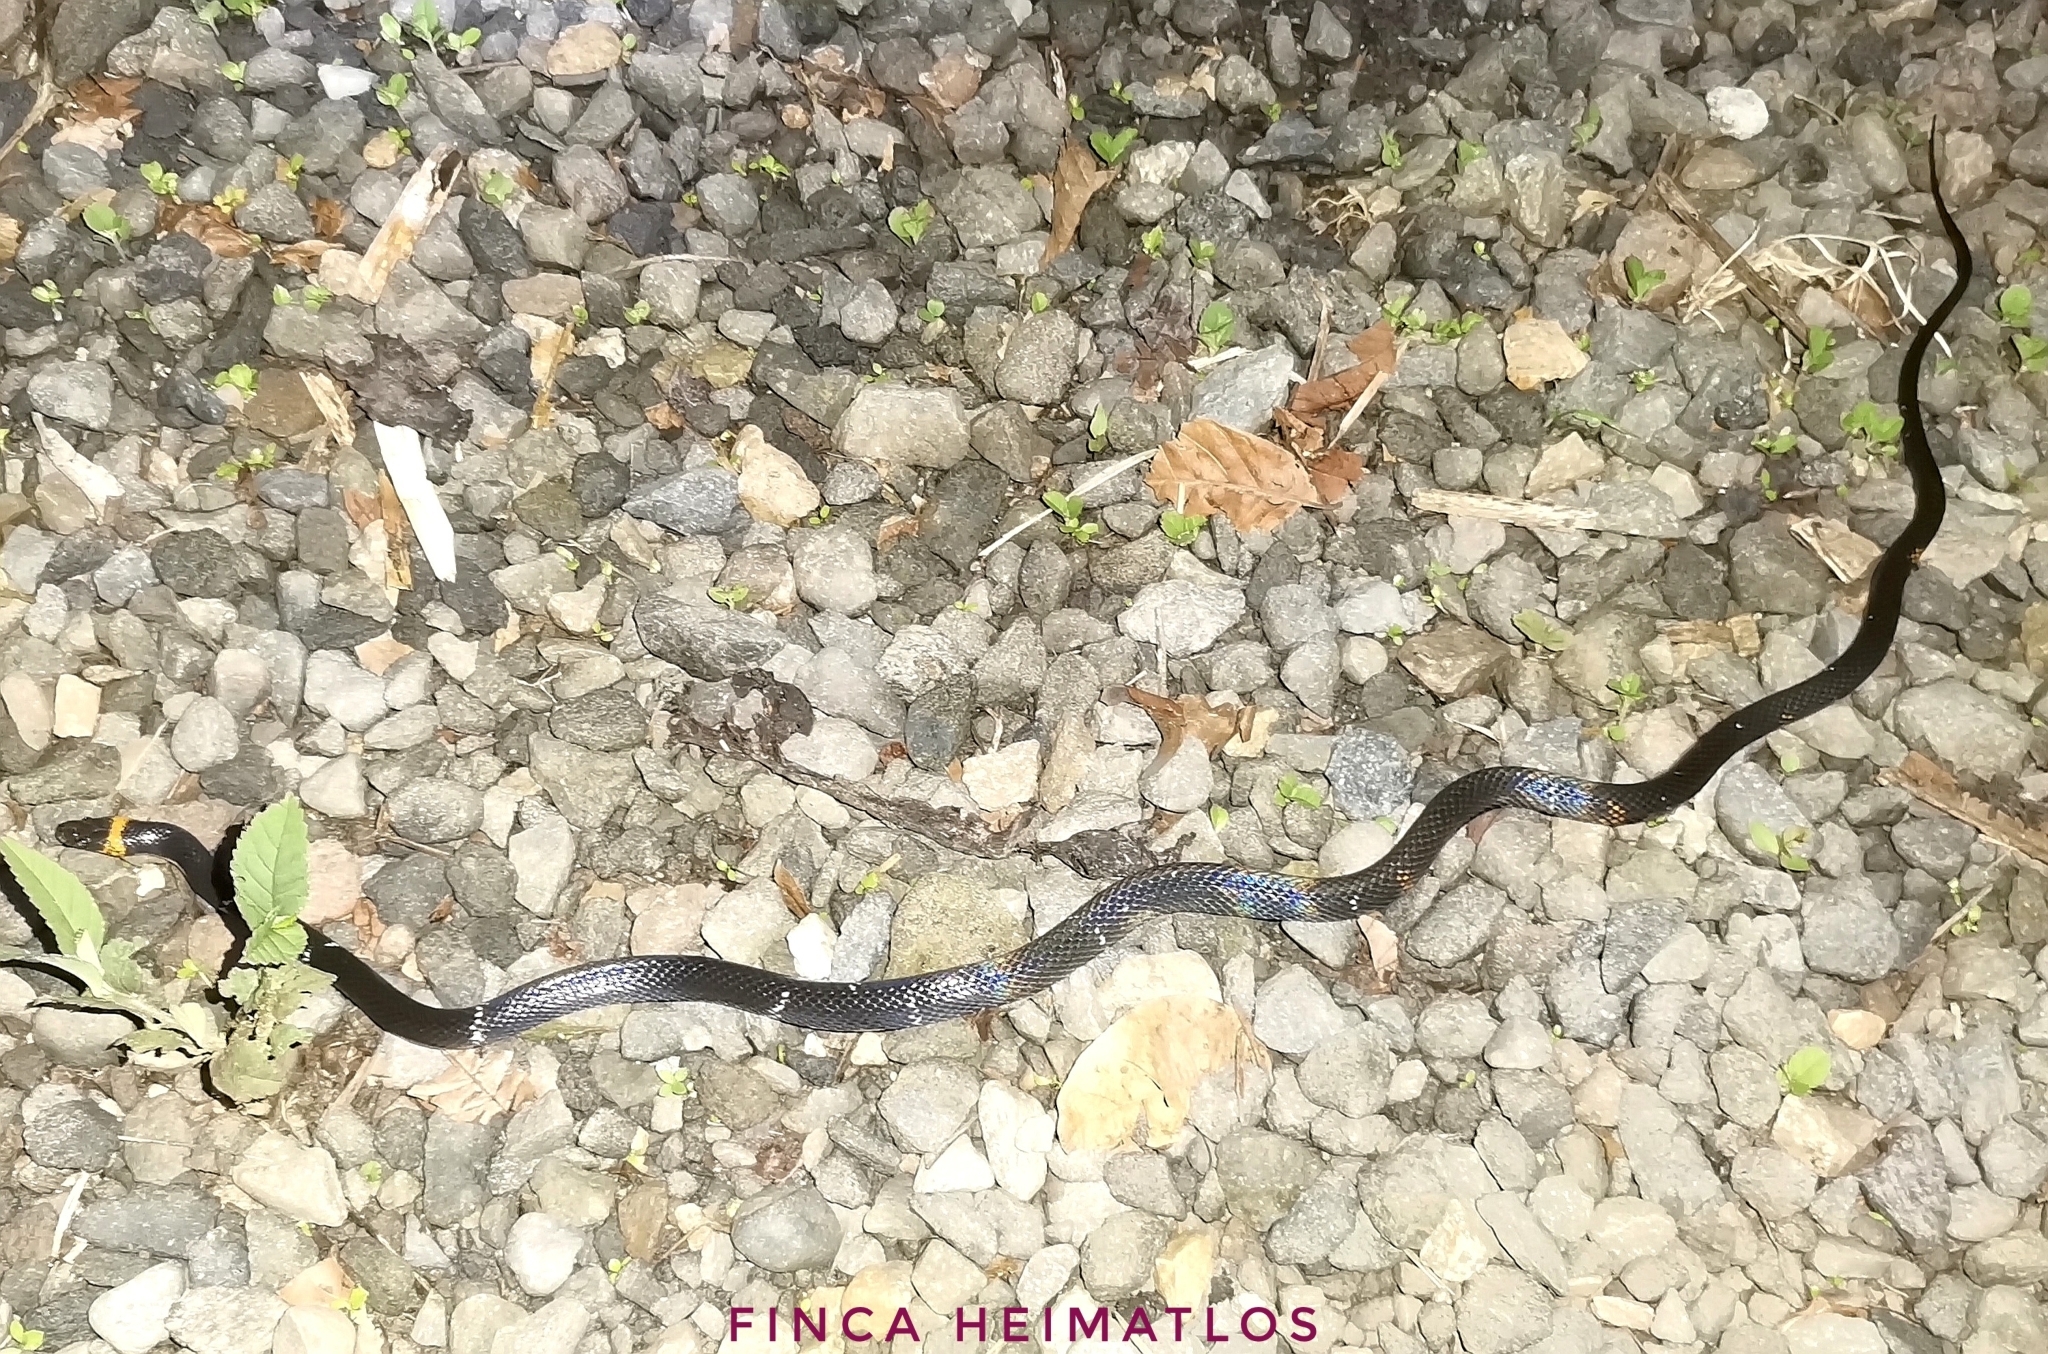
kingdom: Animalia
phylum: Chordata
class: Squamata
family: Colubridae
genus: Oxyrhopus
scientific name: Oxyrhopus vanidicus
